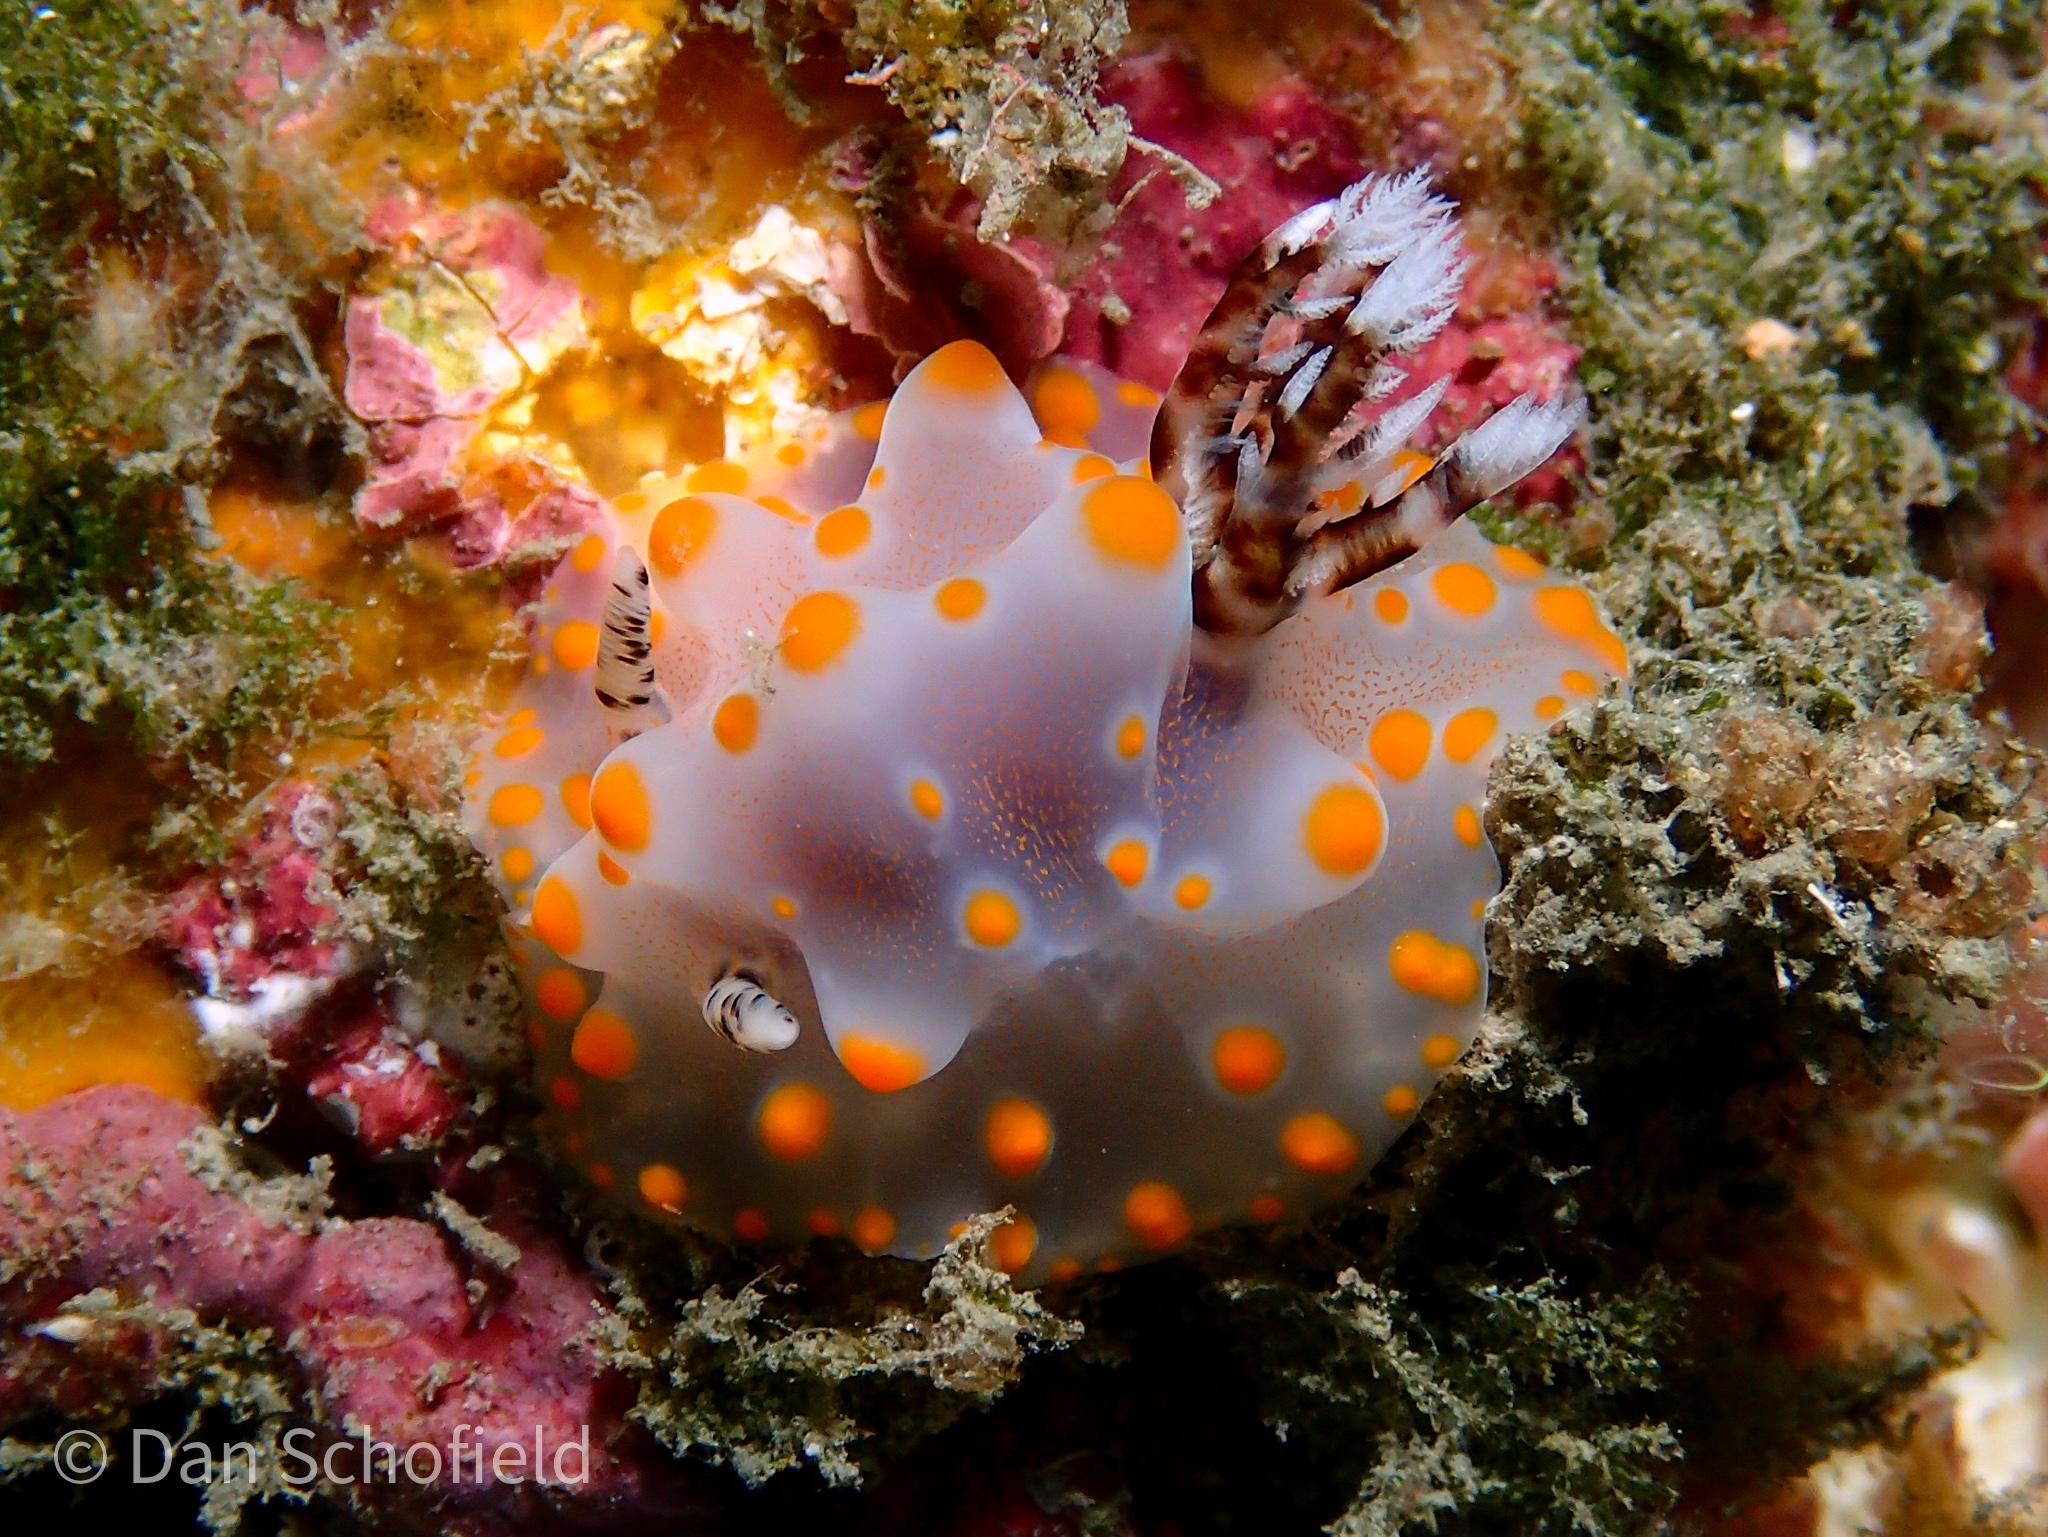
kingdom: Animalia
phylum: Mollusca
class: Gastropoda
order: Nudibranchia
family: Discodorididae
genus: Halgerda
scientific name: Halgerda carlsoni
